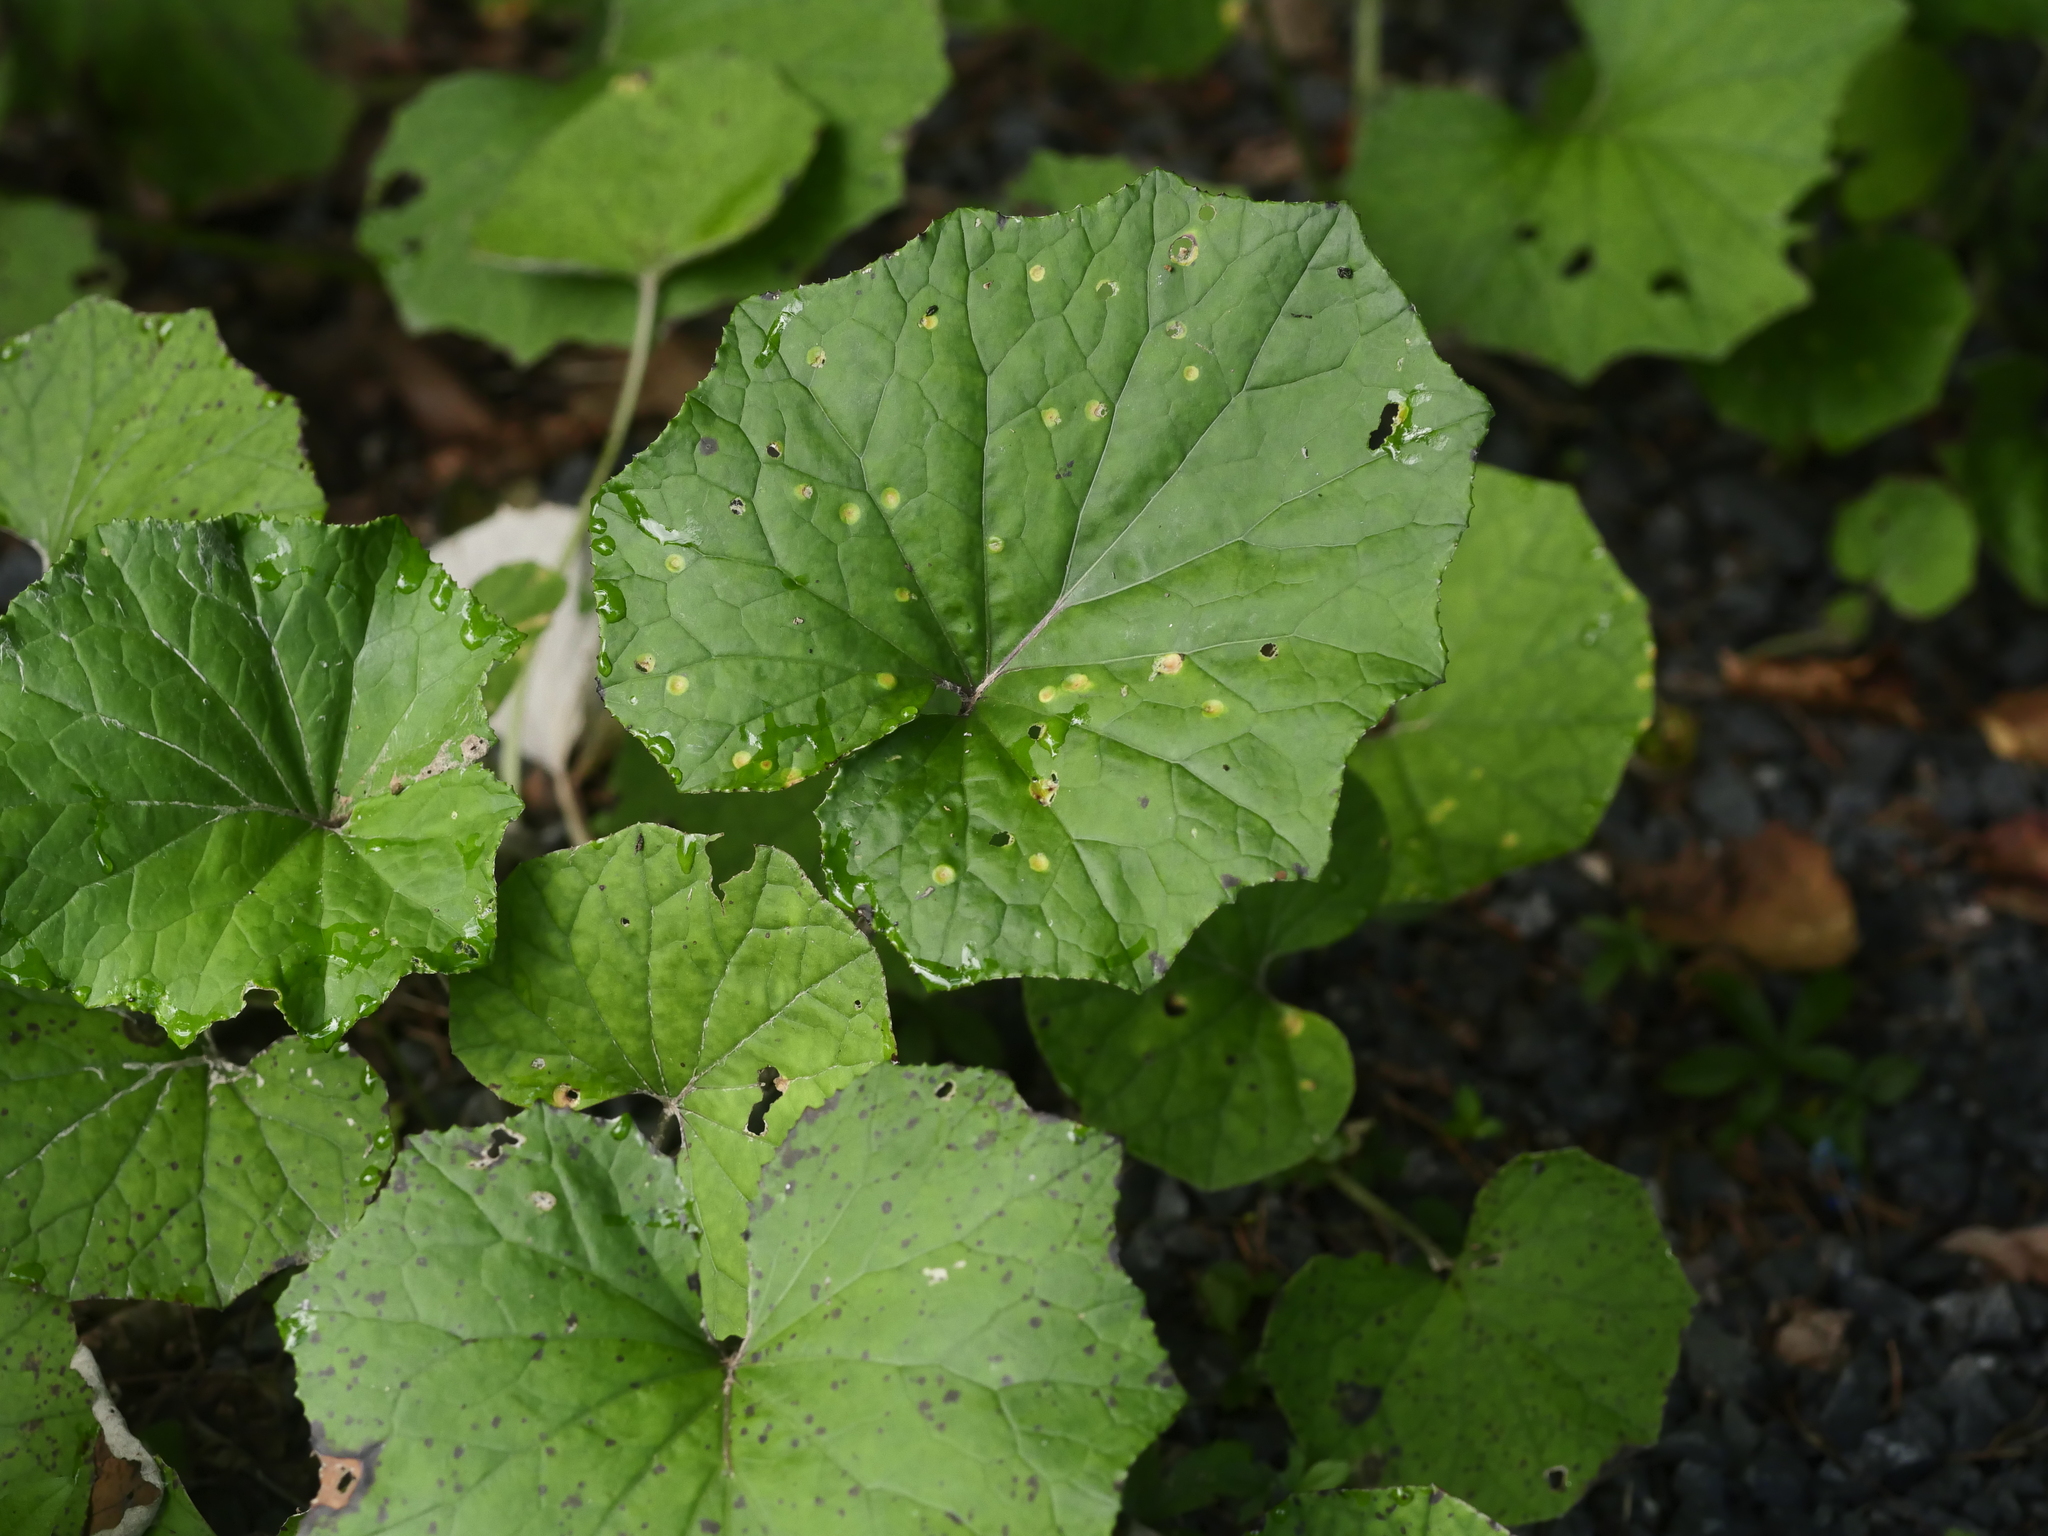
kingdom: Plantae
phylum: Tracheophyta
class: Magnoliopsida
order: Asterales
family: Asteraceae
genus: Tussilago
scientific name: Tussilago farfara
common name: Coltsfoot
